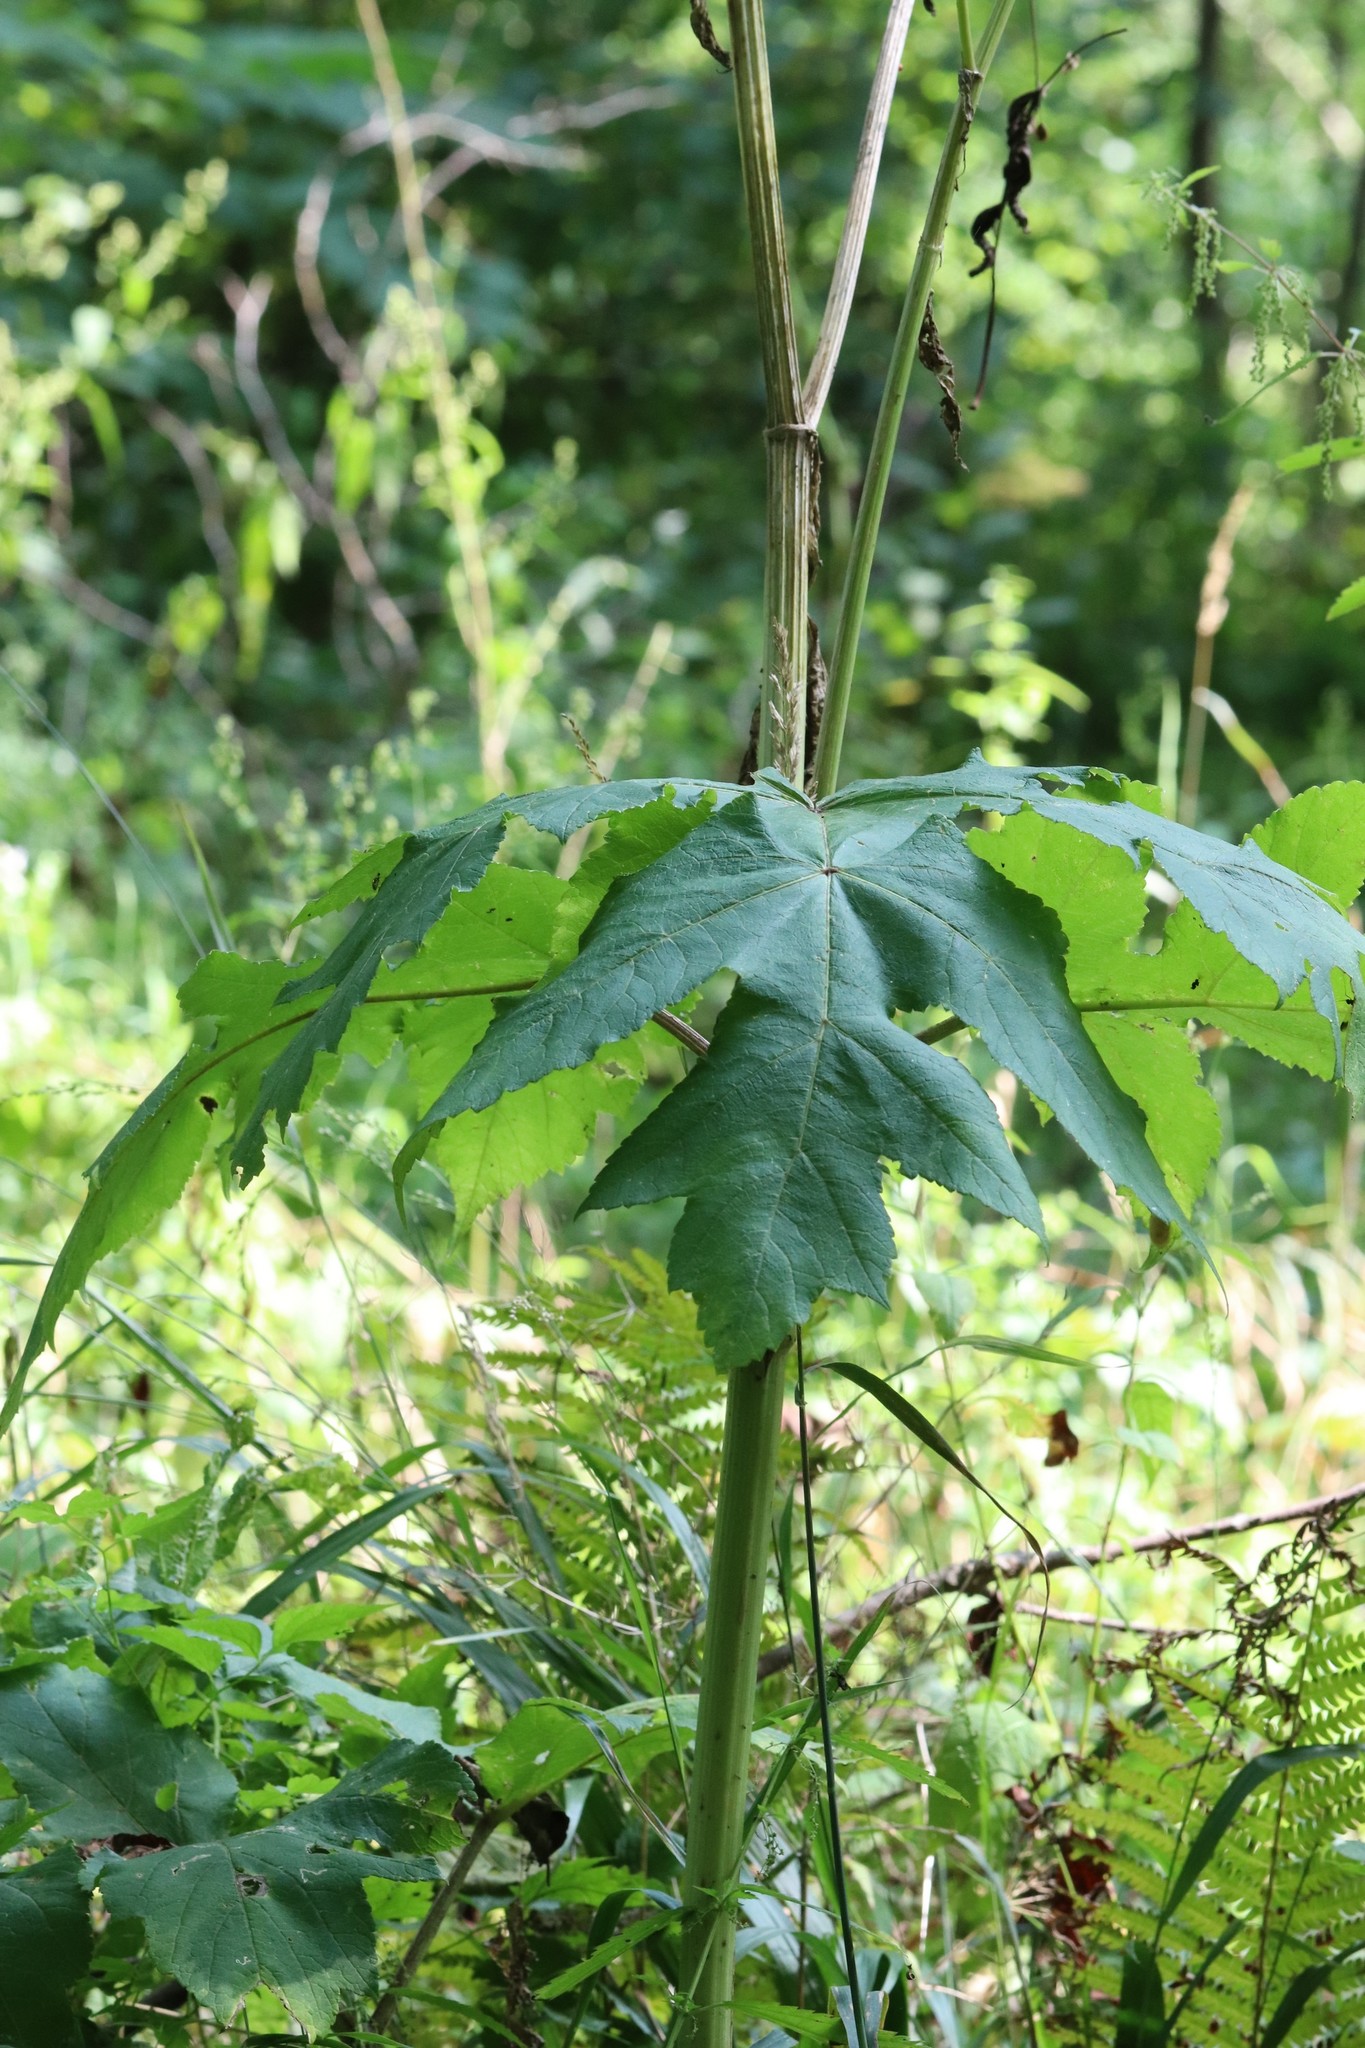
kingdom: Plantae
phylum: Tracheophyta
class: Magnoliopsida
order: Apiales
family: Apiaceae
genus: Heracleum
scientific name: Heracleum dissectum
